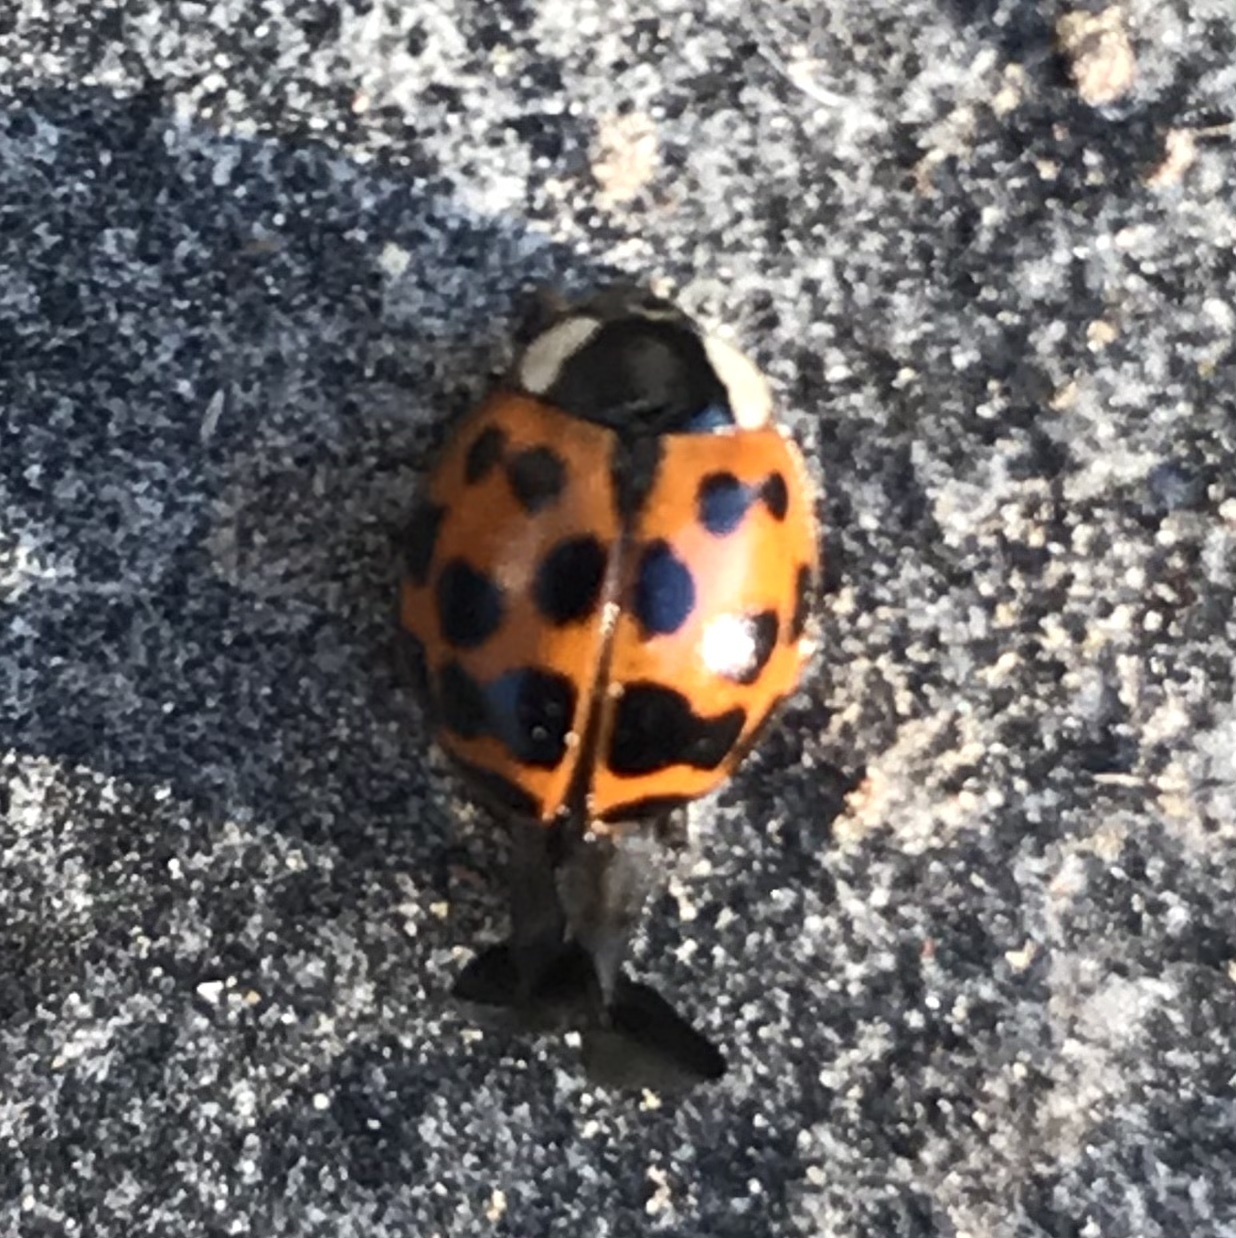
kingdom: Animalia
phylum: Arthropoda
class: Insecta
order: Coleoptera
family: Coccinellidae
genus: Harmonia
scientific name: Harmonia axyridis
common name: Harlequin ladybird
